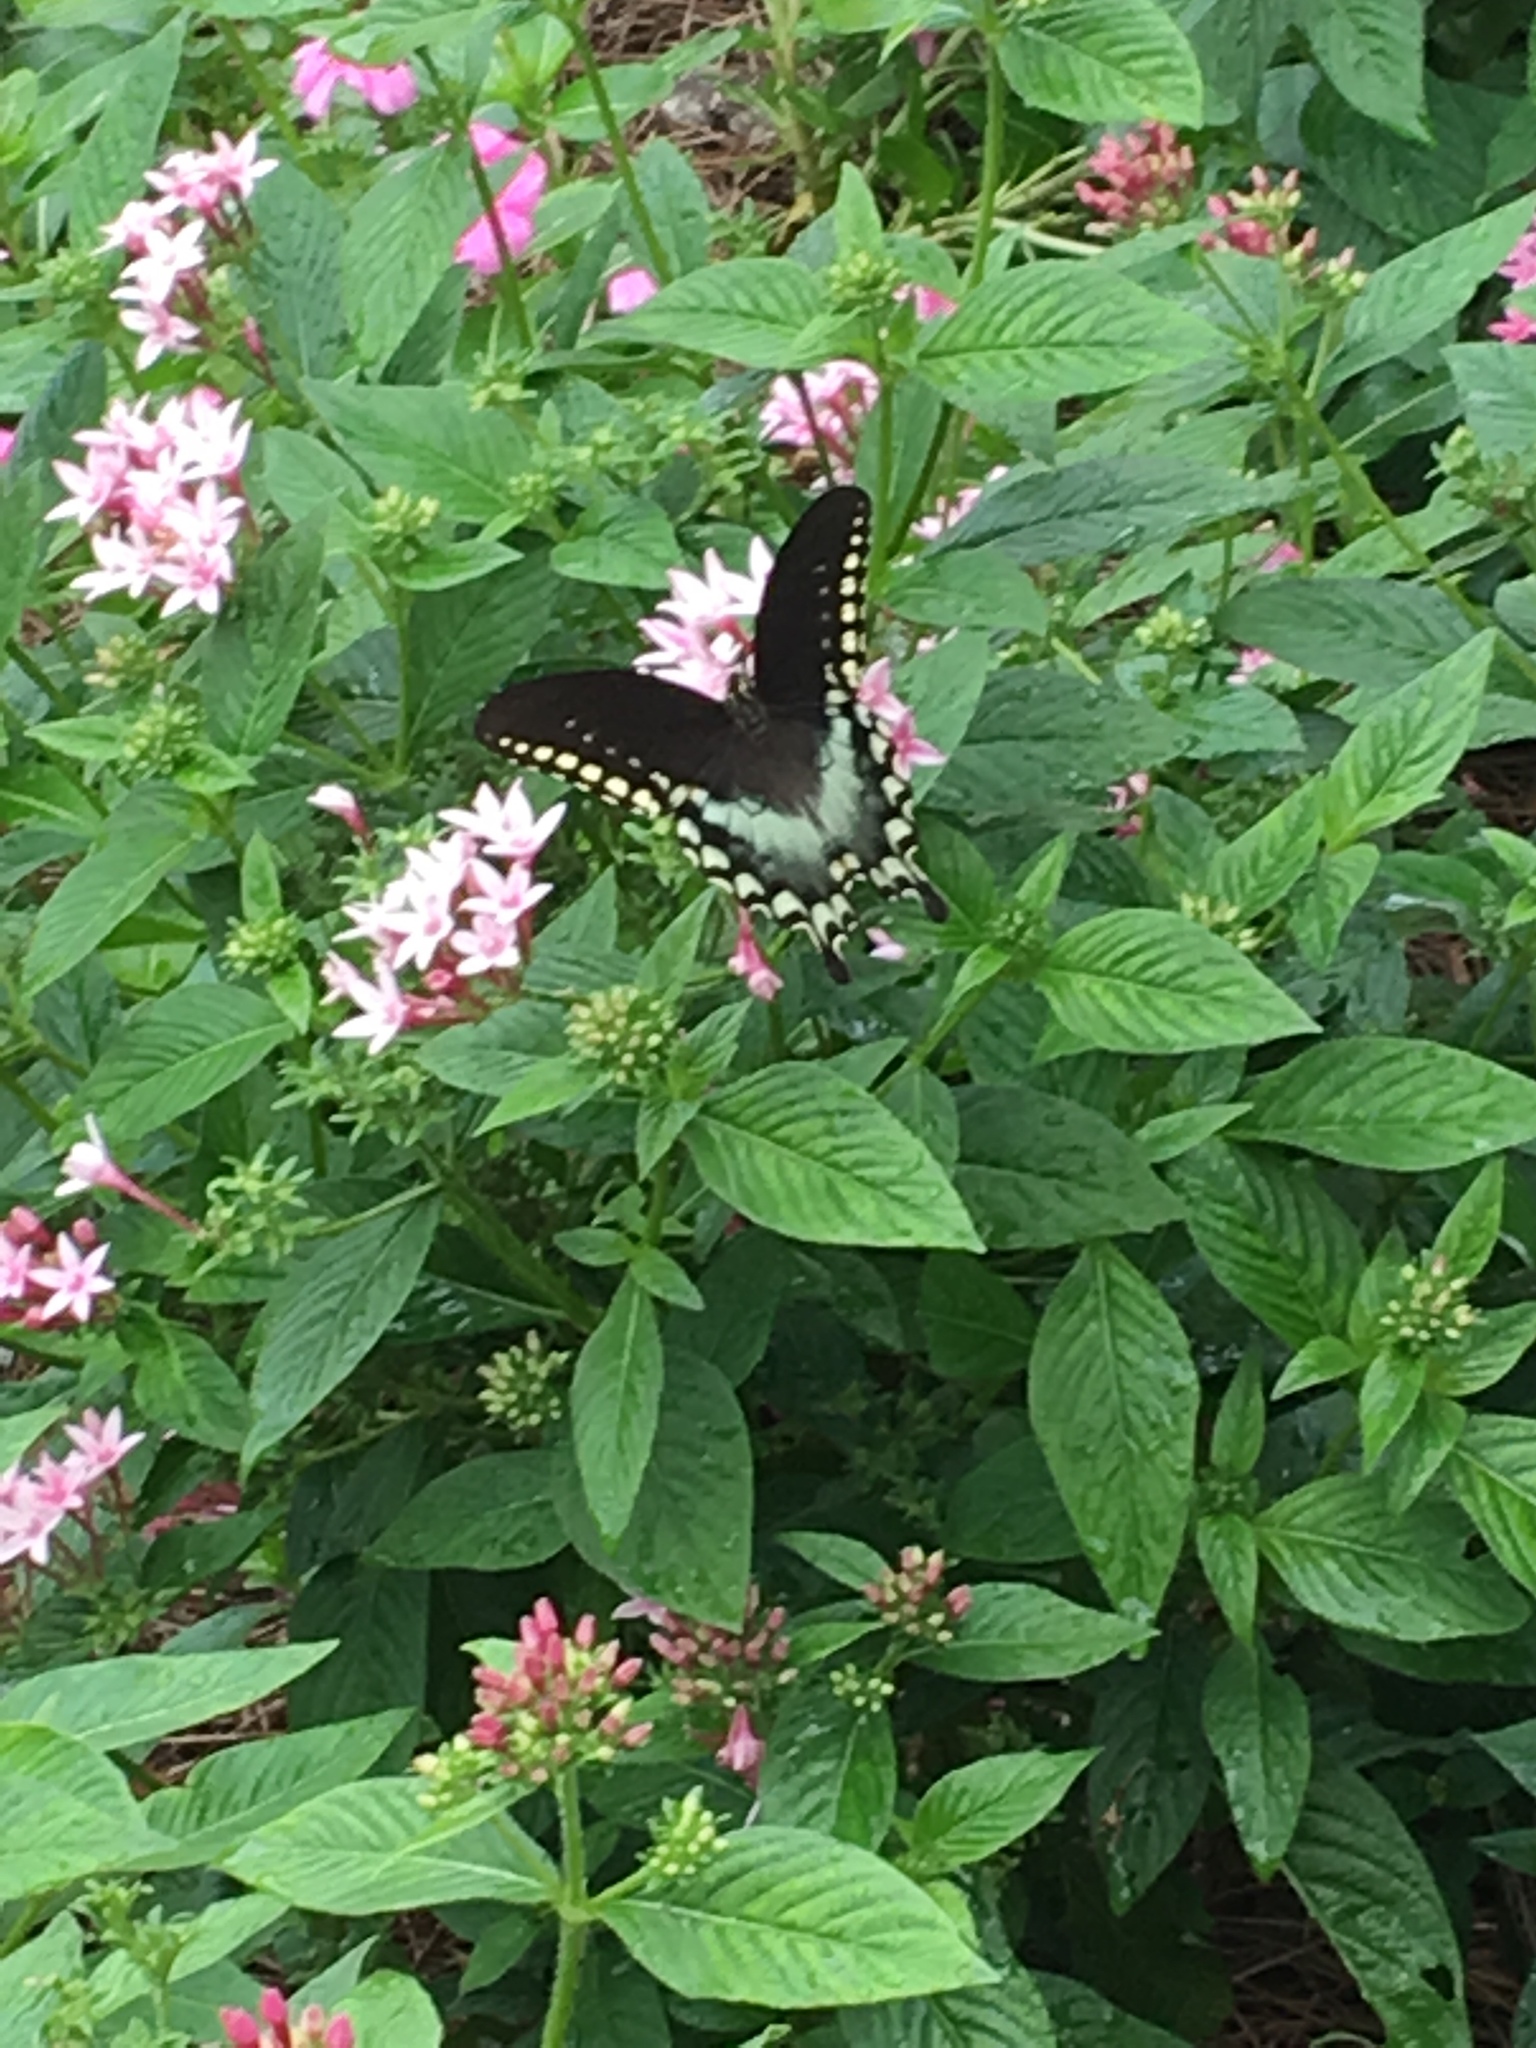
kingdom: Animalia
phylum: Arthropoda
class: Insecta
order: Lepidoptera
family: Papilionidae
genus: Papilio
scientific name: Papilio troilus
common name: Spicebush swallowtail
